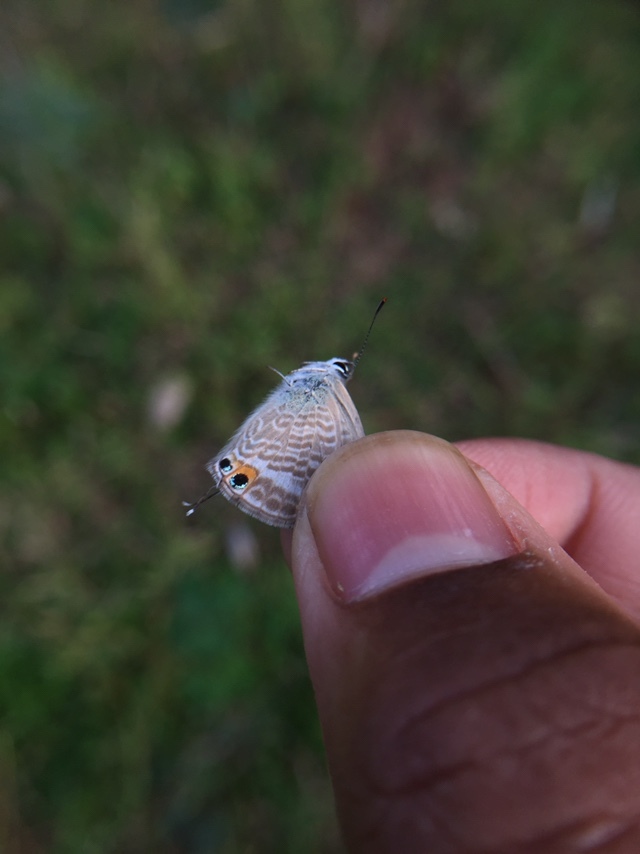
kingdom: Animalia
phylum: Arthropoda
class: Insecta
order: Lepidoptera
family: Lycaenidae
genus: Lampides
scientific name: Lampides boeticus
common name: Long-tailed blue
